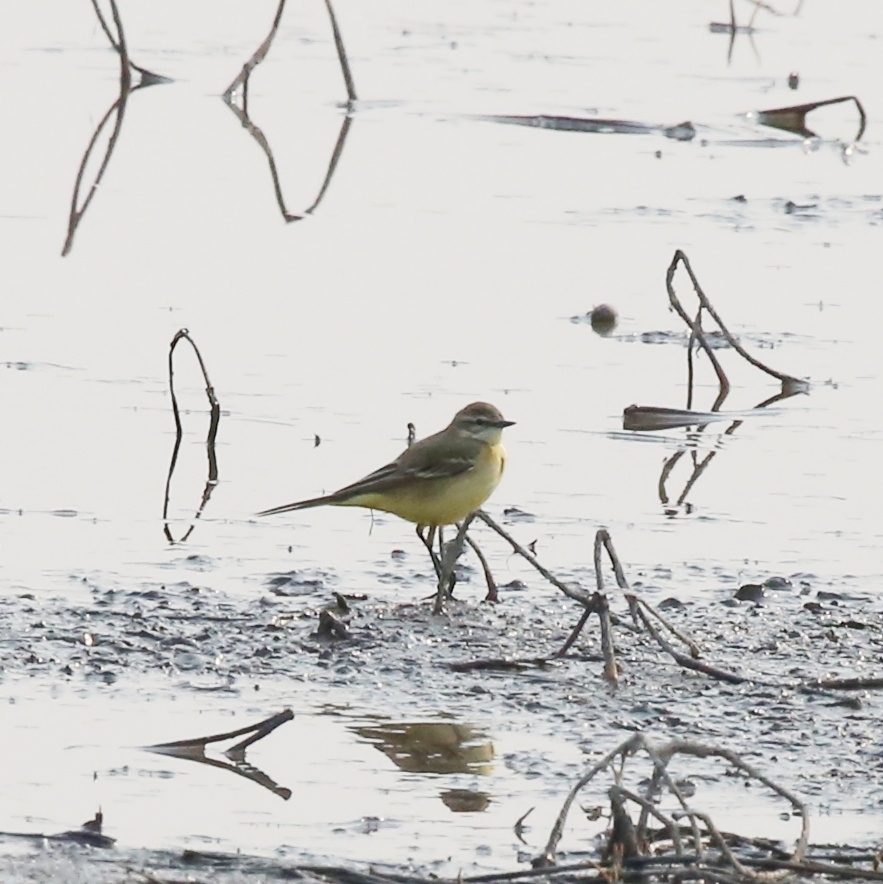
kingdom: Animalia
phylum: Chordata
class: Aves
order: Passeriformes
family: Motacillidae
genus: Motacilla
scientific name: Motacilla flava
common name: Western yellow wagtail
